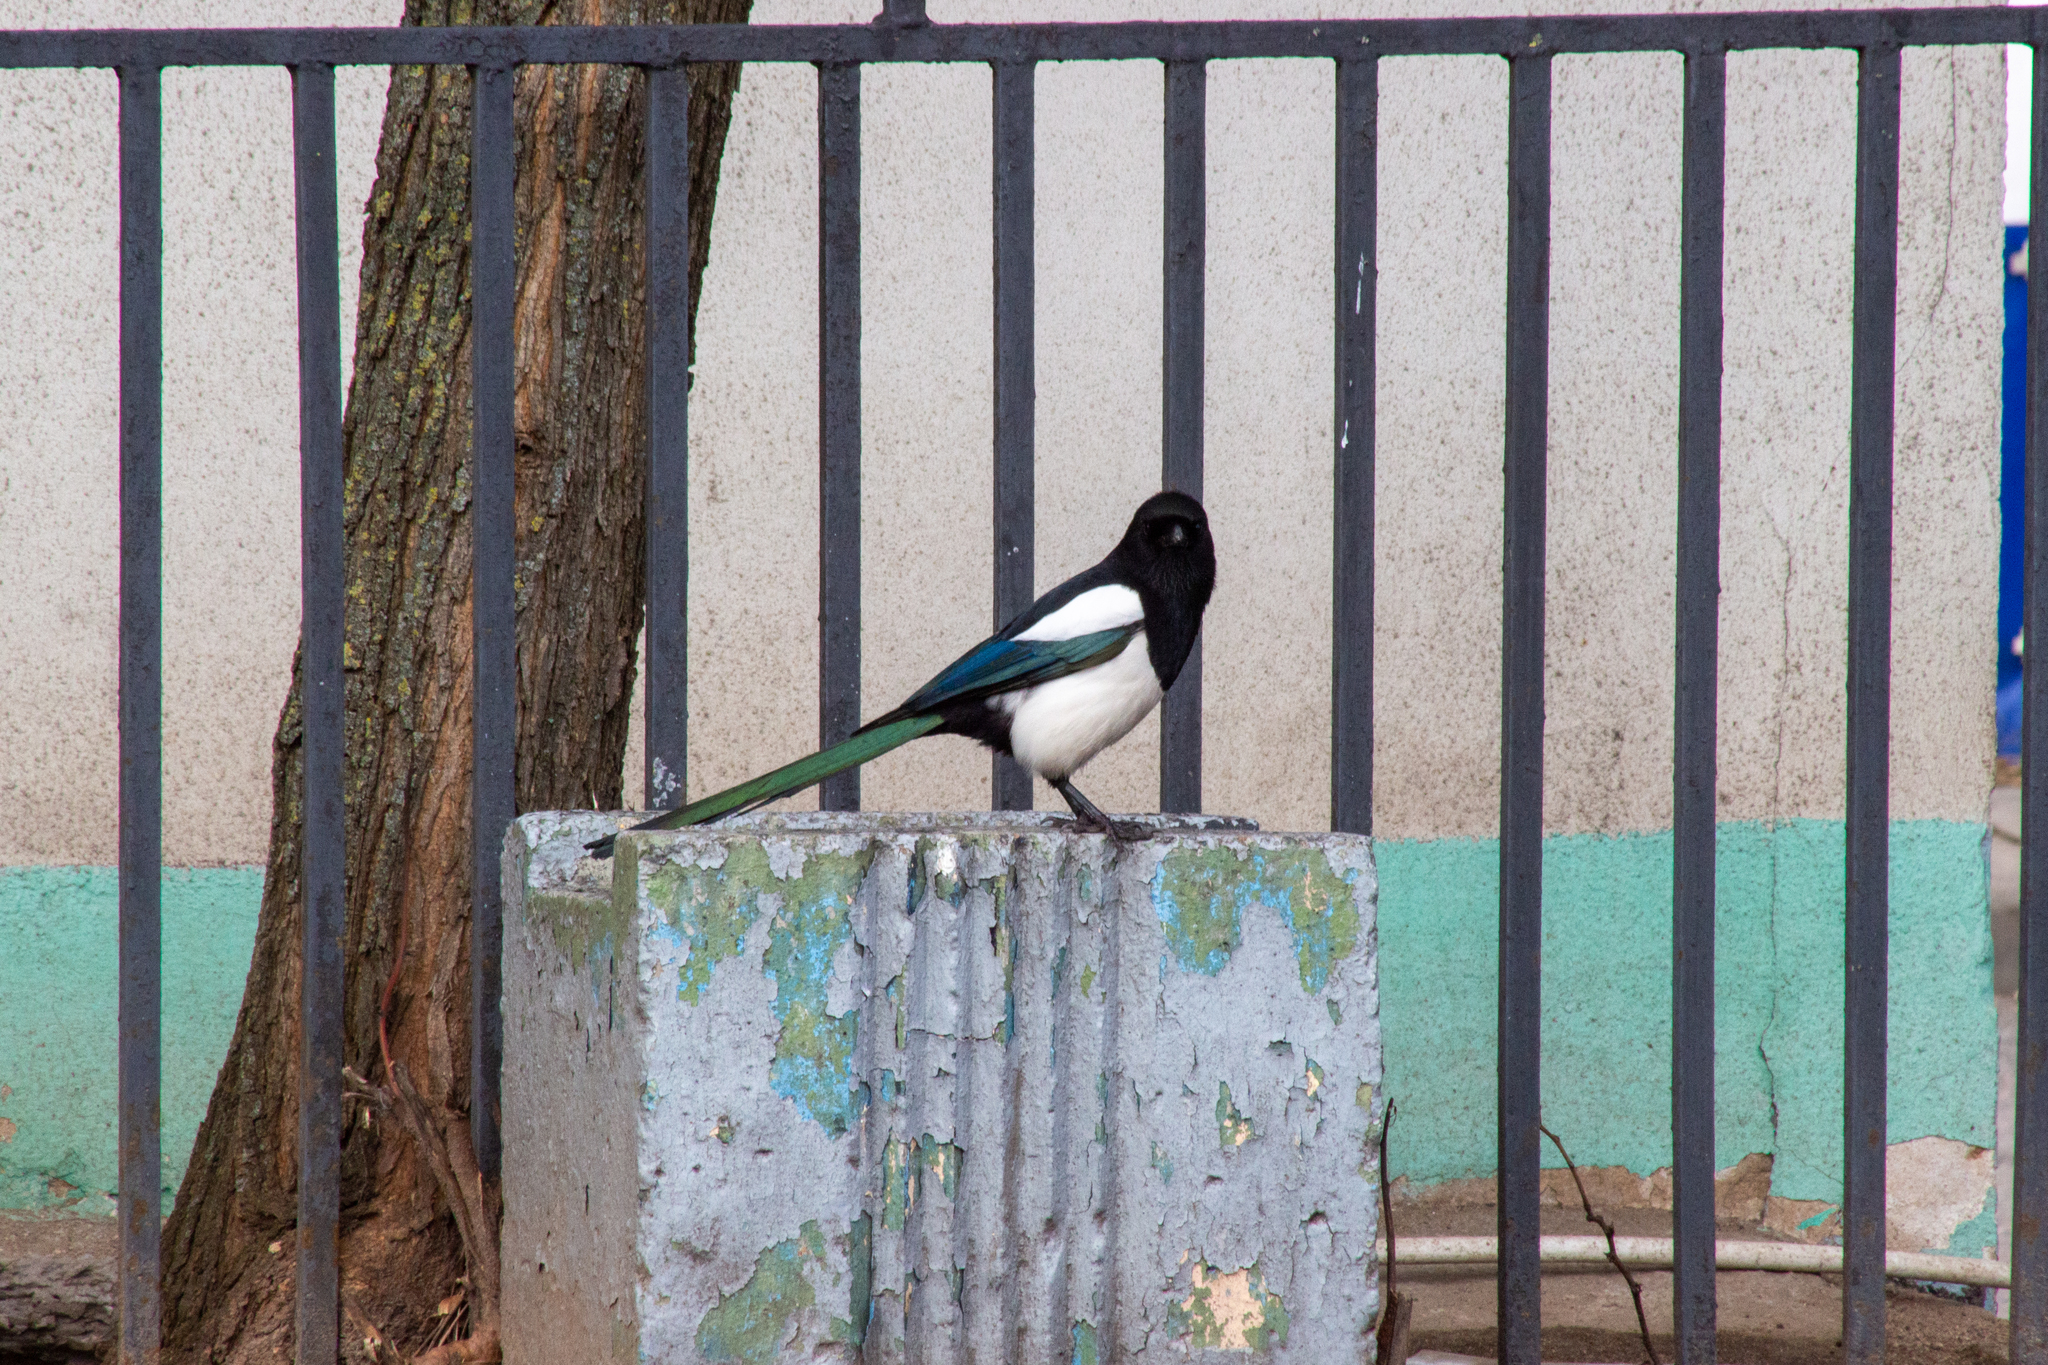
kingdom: Animalia
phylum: Chordata
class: Aves
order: Passeriformes
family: Corvidae
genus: Pica
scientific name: Pica pica
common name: Eurasian magpie
